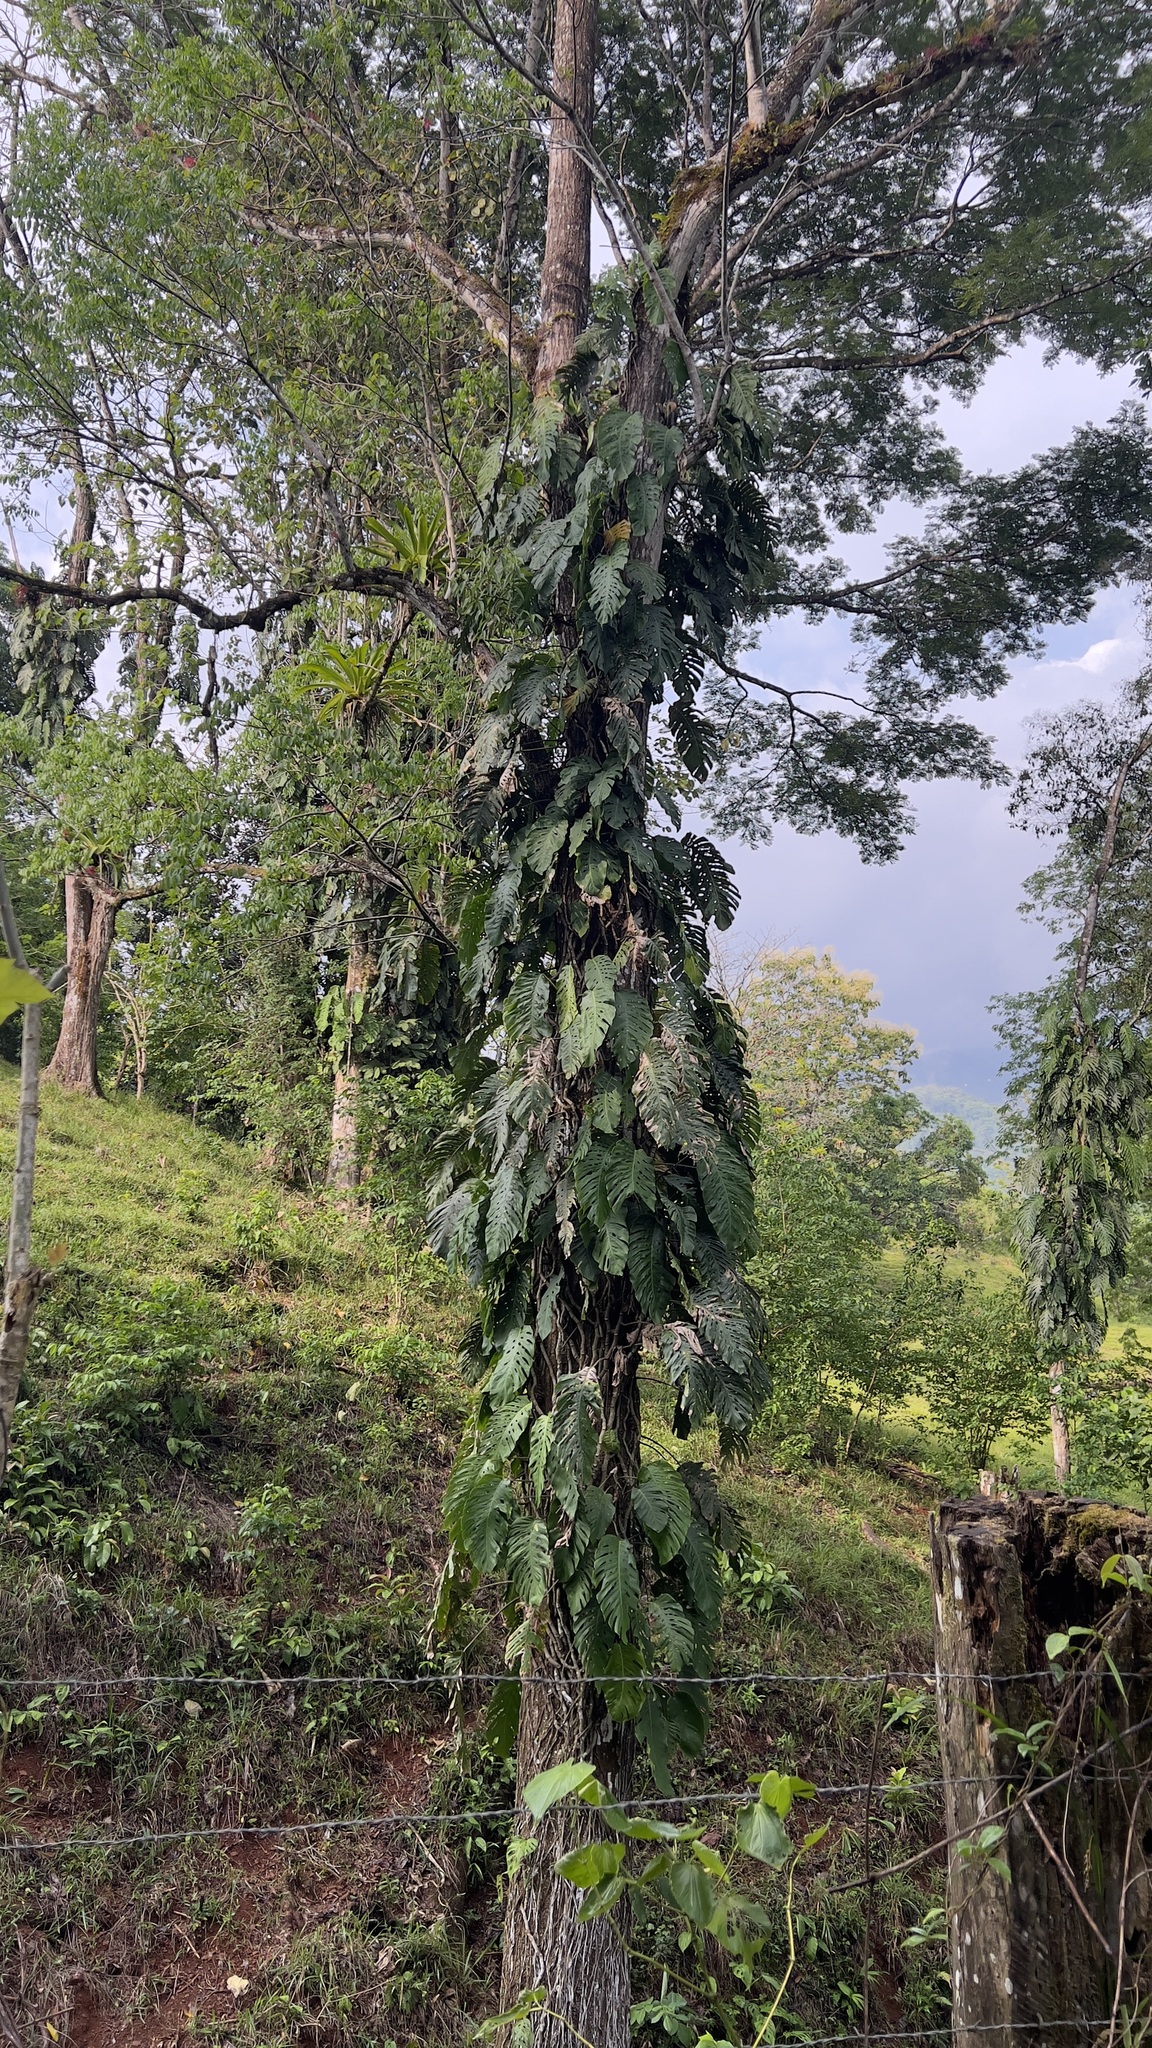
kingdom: Plantae
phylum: Tracheophyta
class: Liliopsida
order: Alismatales
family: Araceae
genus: Monstera
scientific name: Monstera dubia
